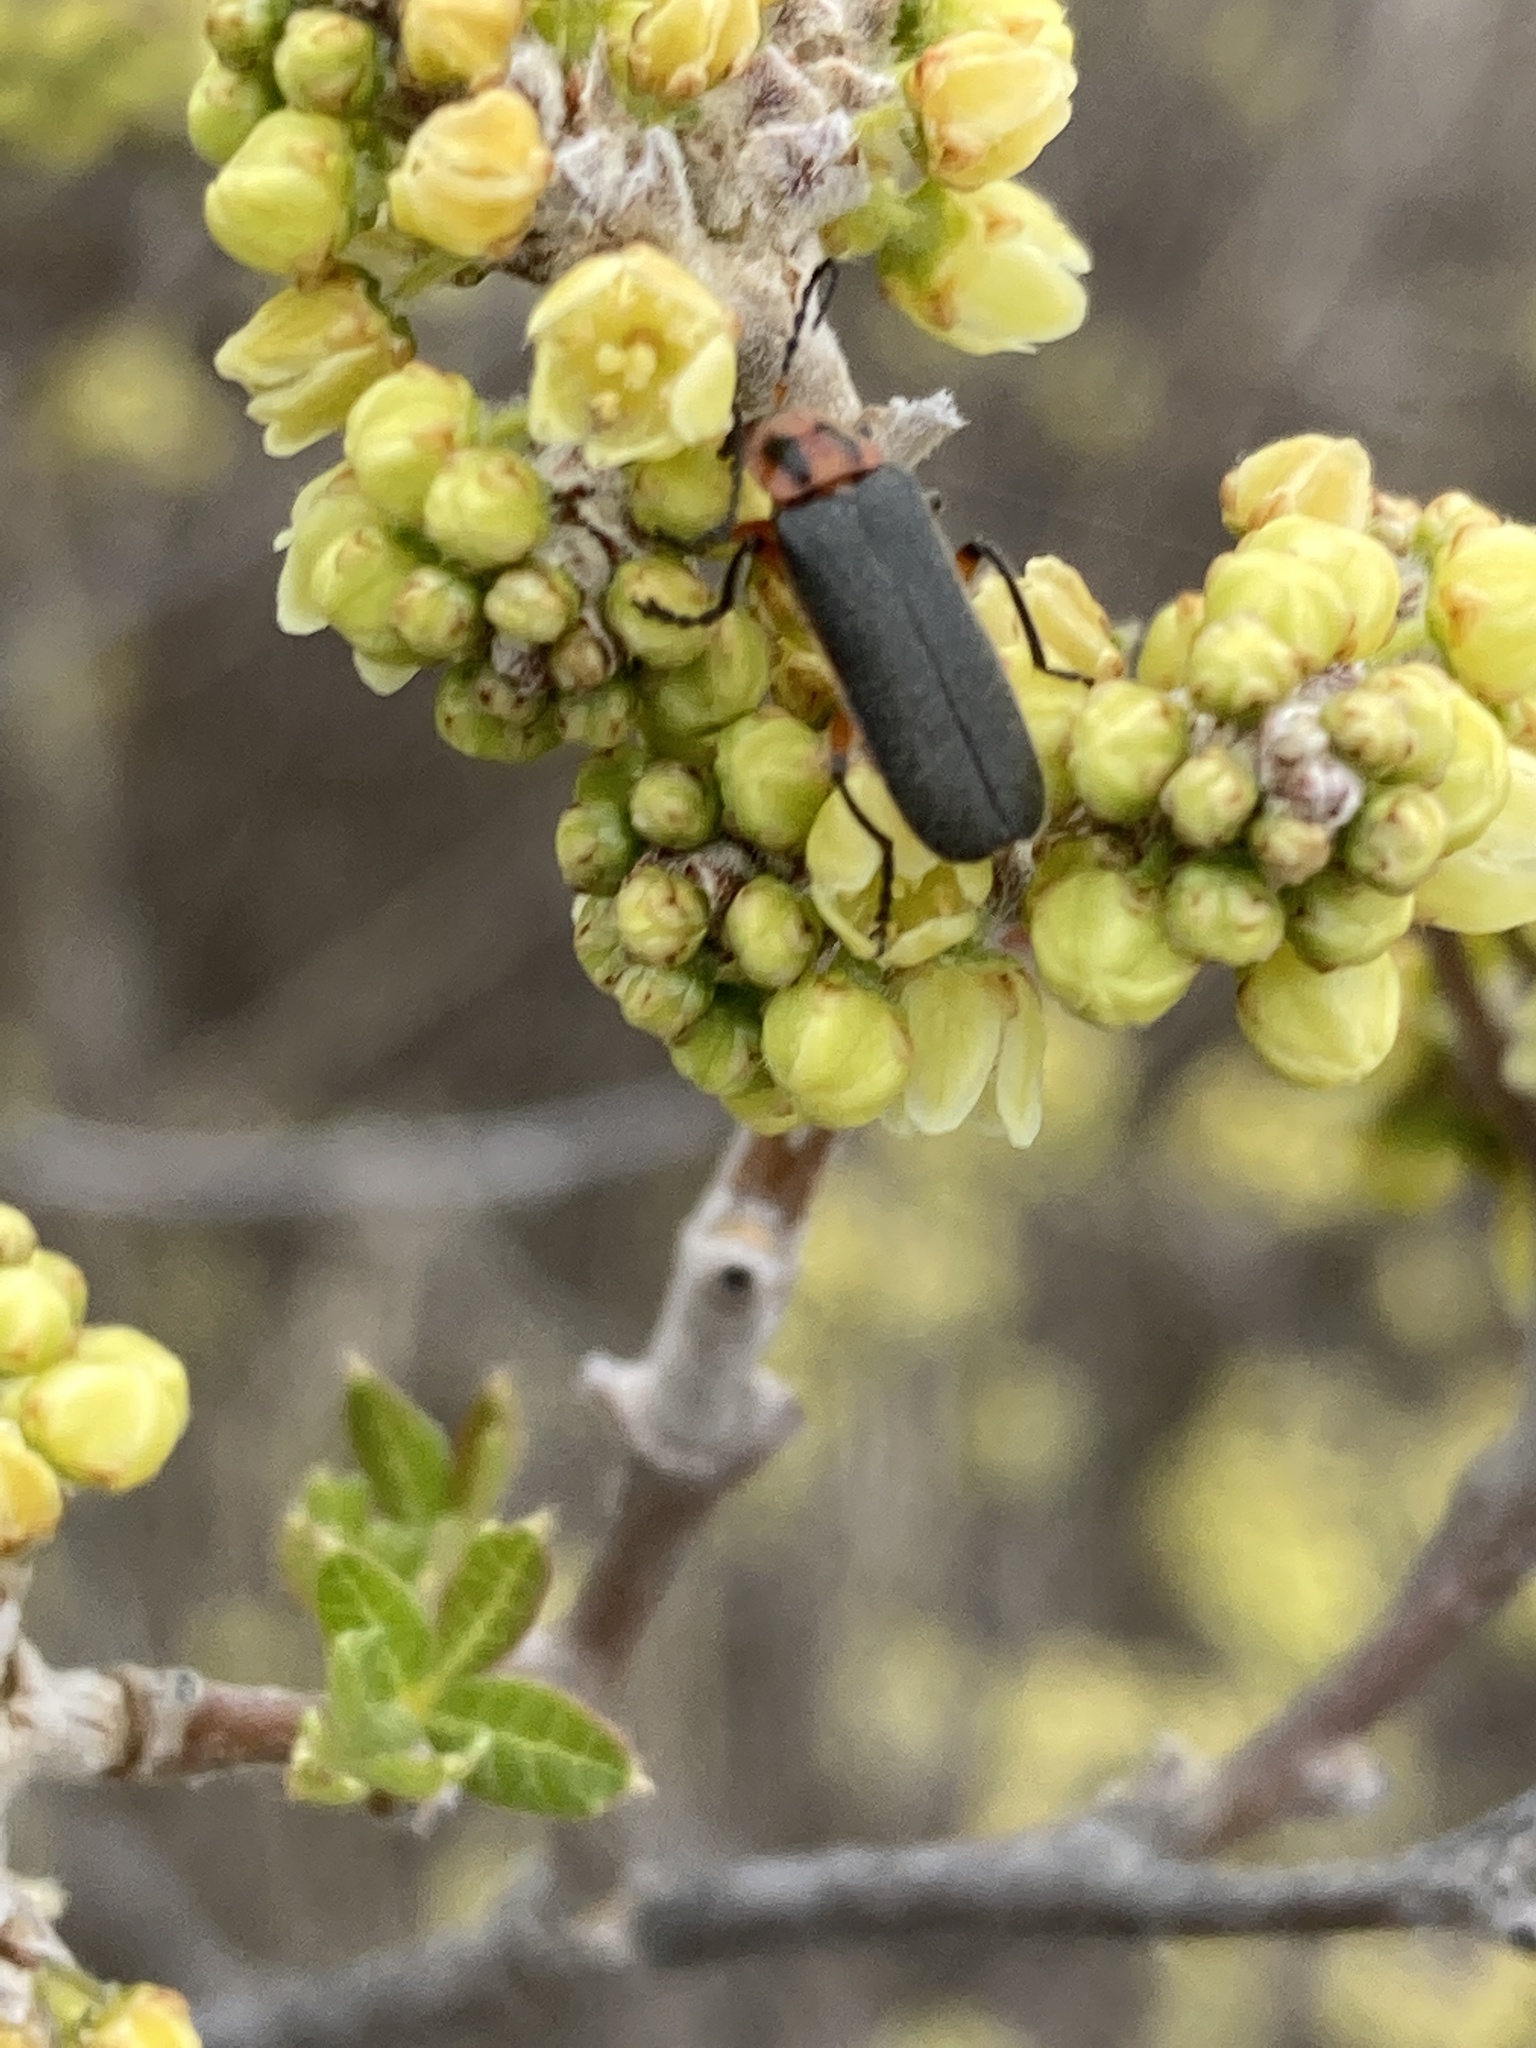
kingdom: Animalia
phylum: Arthropoda
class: Insecta
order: Coleoptera
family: Cantharidae
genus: Atalantycha
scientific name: Atalantycha bilineata
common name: Two-lined leatherwing
